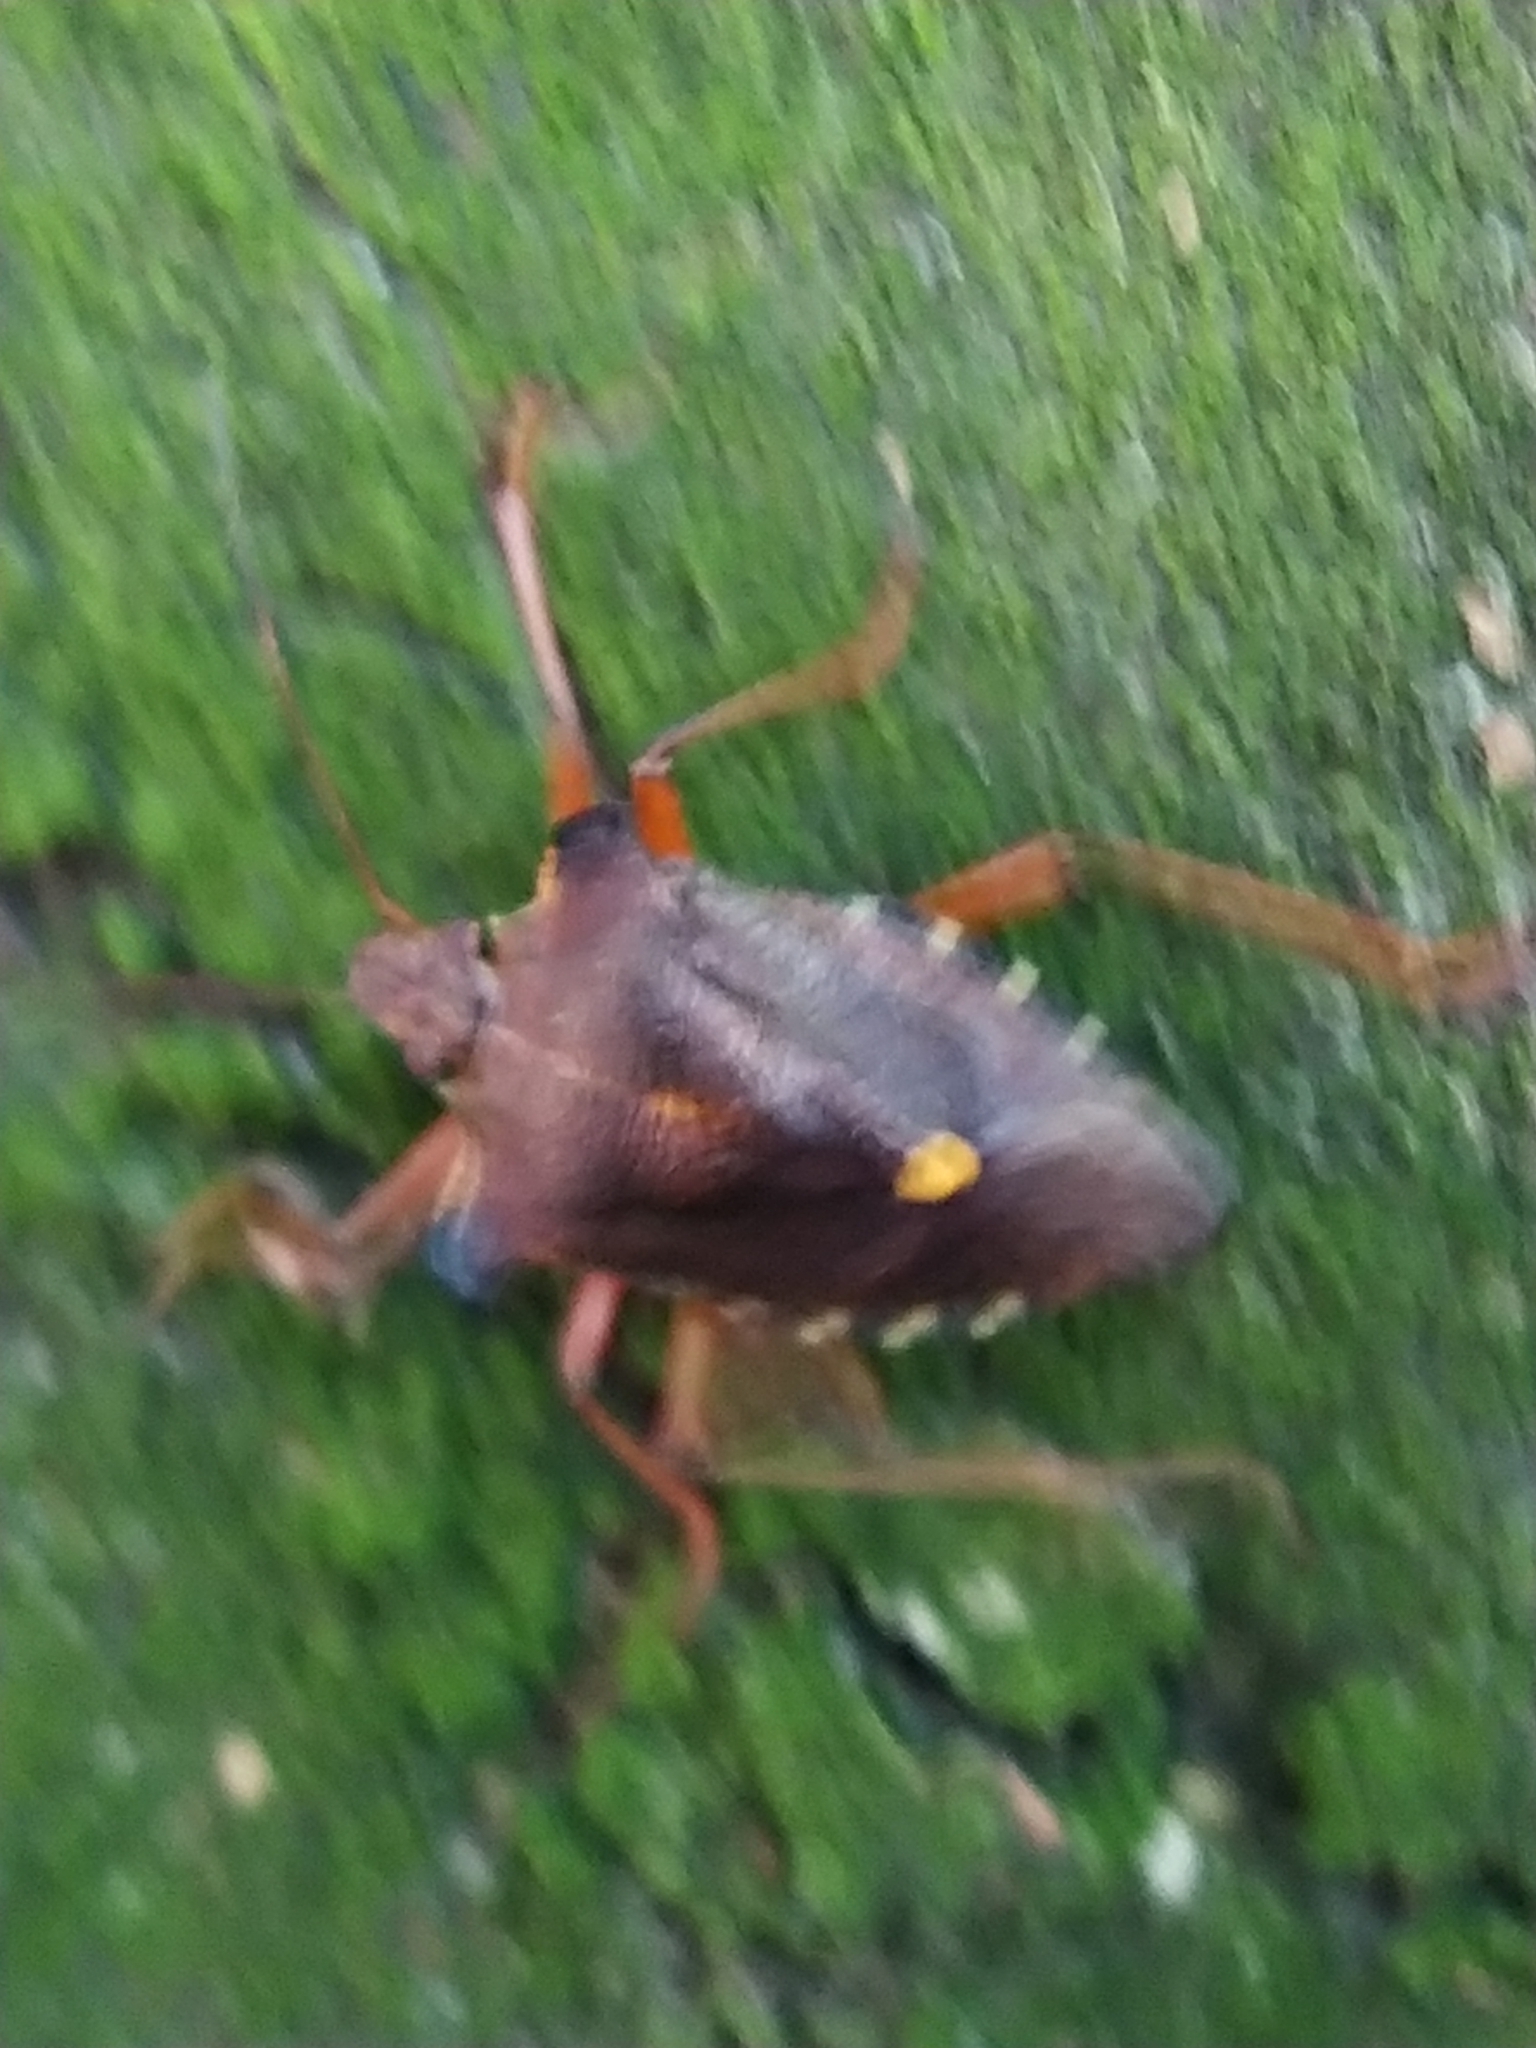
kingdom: Animalia
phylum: Arthropoda
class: Insecta
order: Hemiptera
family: Pentatomidae
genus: Pentatoma
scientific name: Pentatoma rufipes
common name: Forest bug
